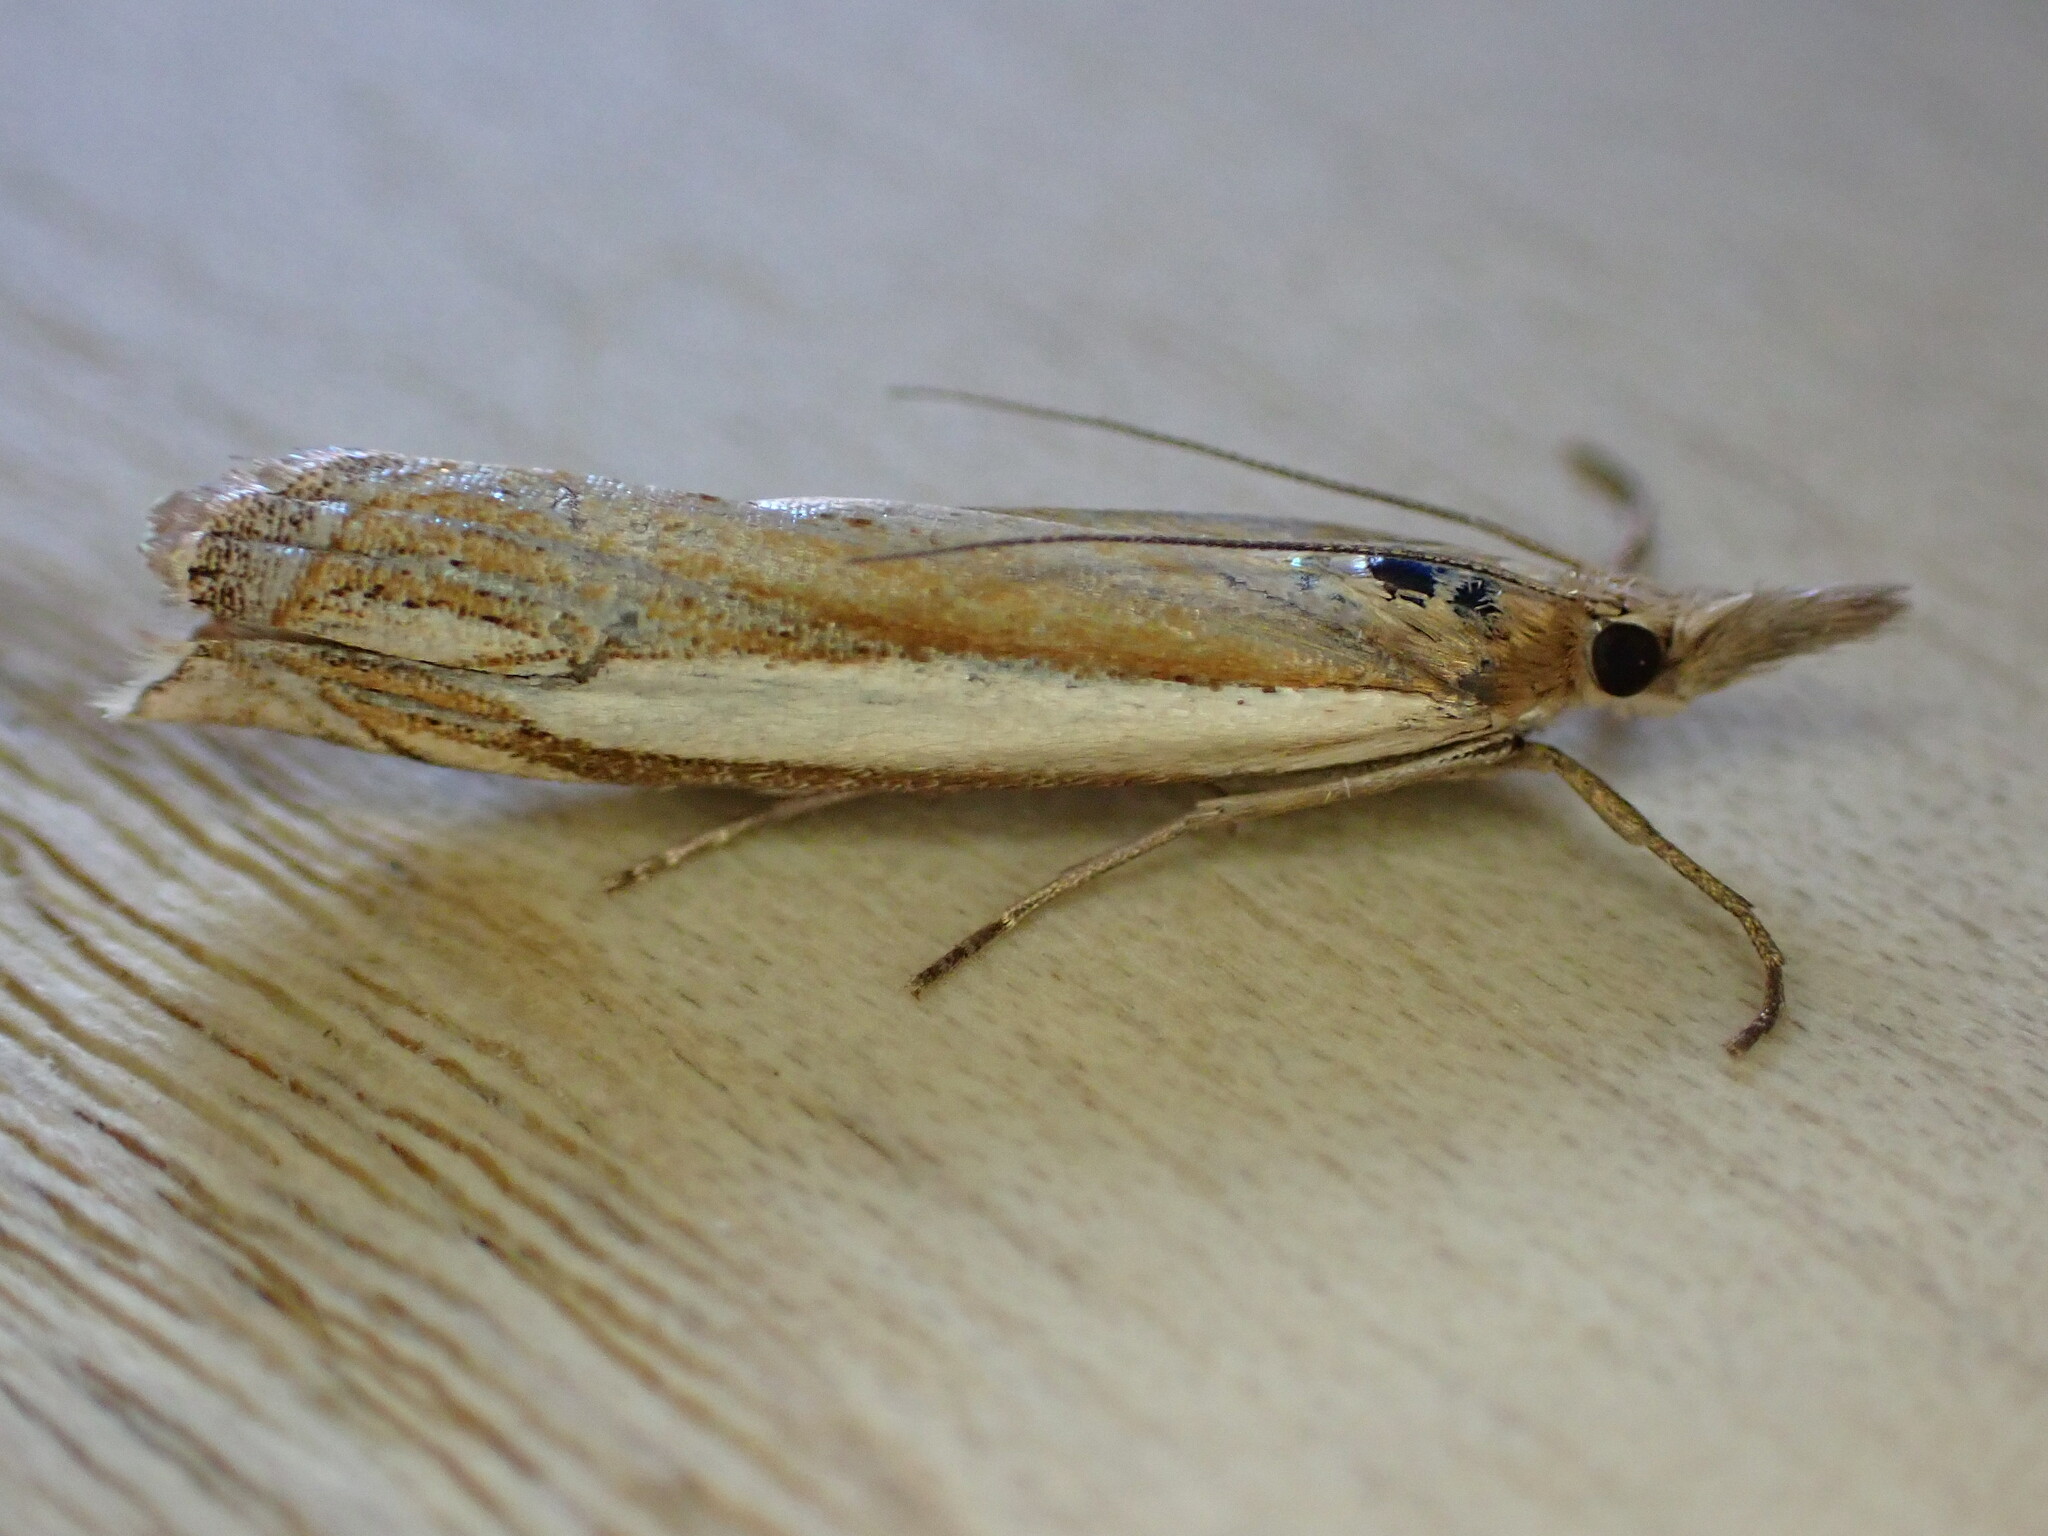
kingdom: Animalia
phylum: Arthropoda
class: Insecta
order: Lepidoptera
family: Crambidae
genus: Crambus
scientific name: Crambus pascuella
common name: Inlaid grass-veneer
